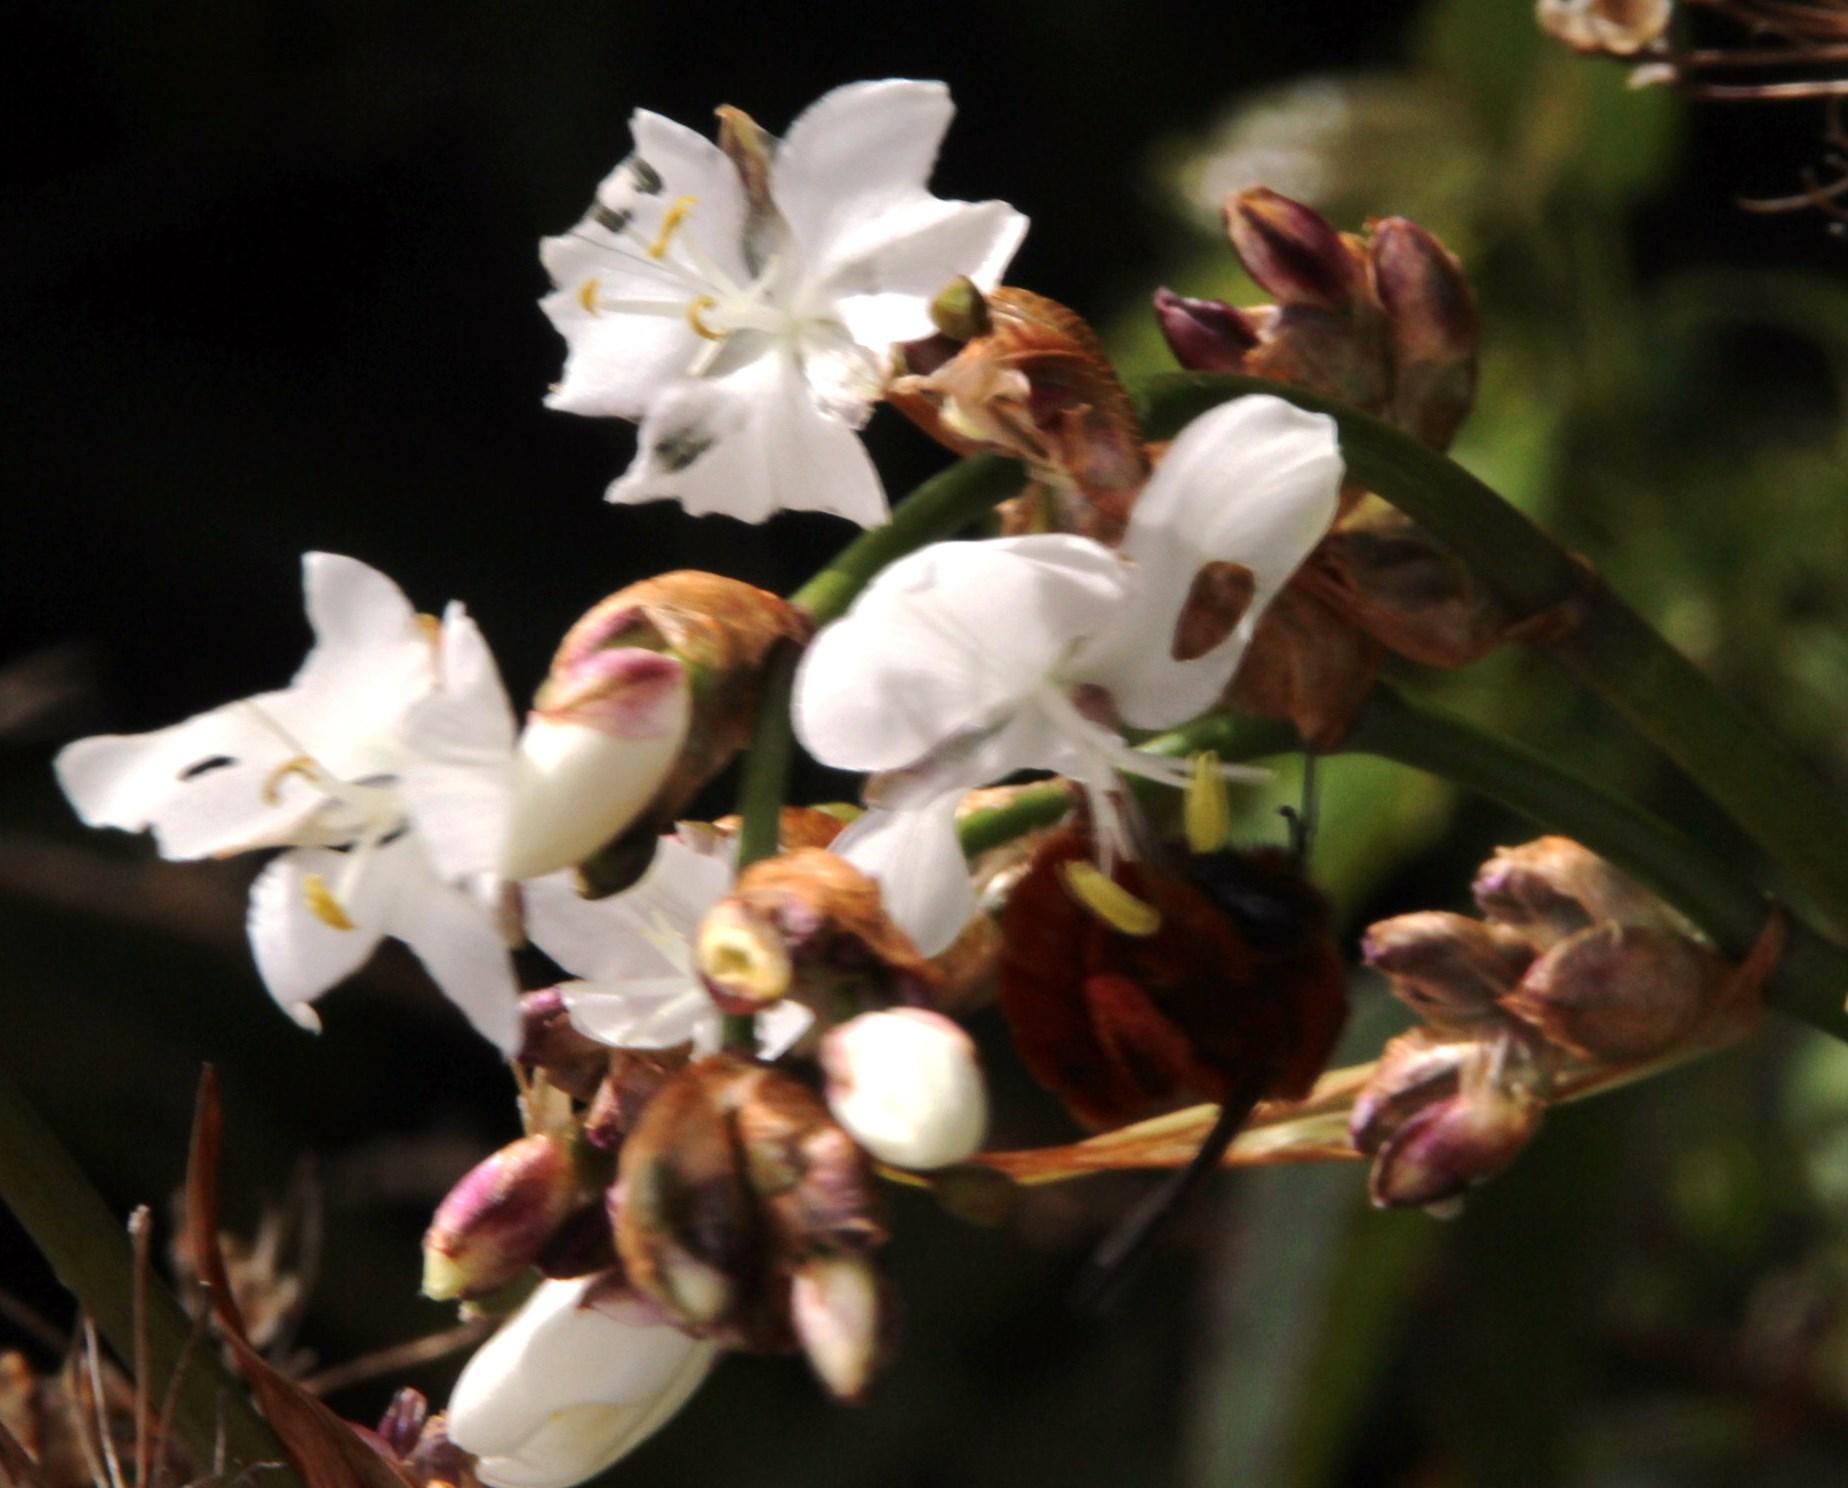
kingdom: Animalia
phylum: Arthropoda
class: Insecta
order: Hymenoptera
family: Colletidae
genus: Diphaglossa
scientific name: Diphaglossa gayi
